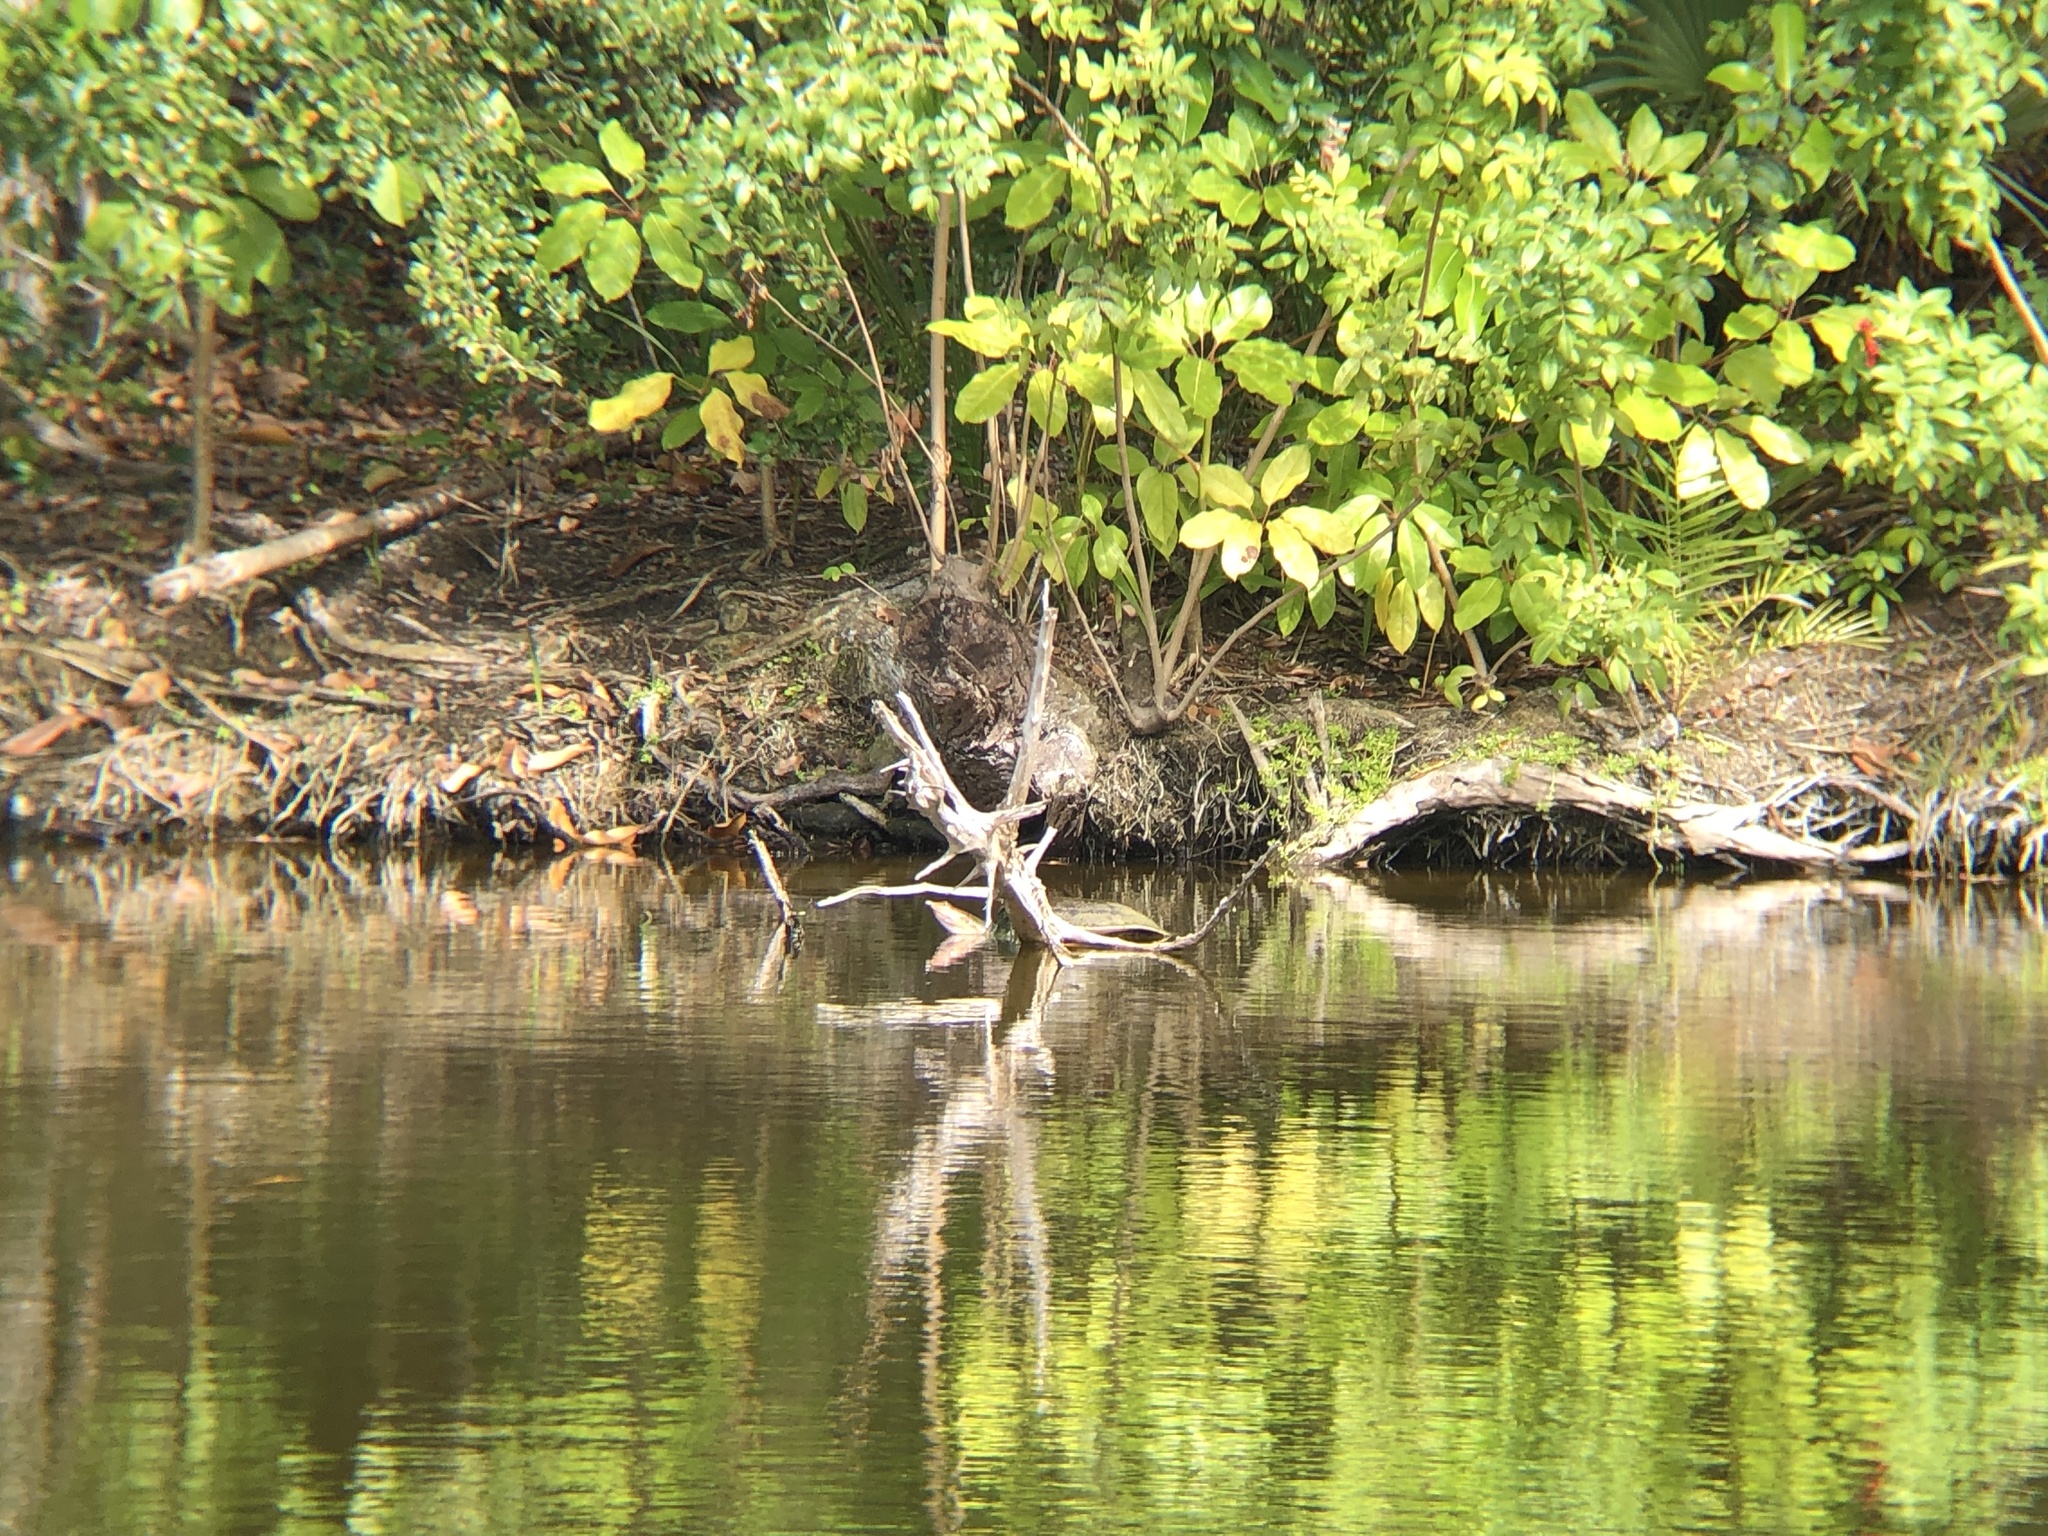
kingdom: Animalia
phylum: Chordata
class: Testudines
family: Trionychidae
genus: Apalone
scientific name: Apalone ferox
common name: Florida softshell turtle
